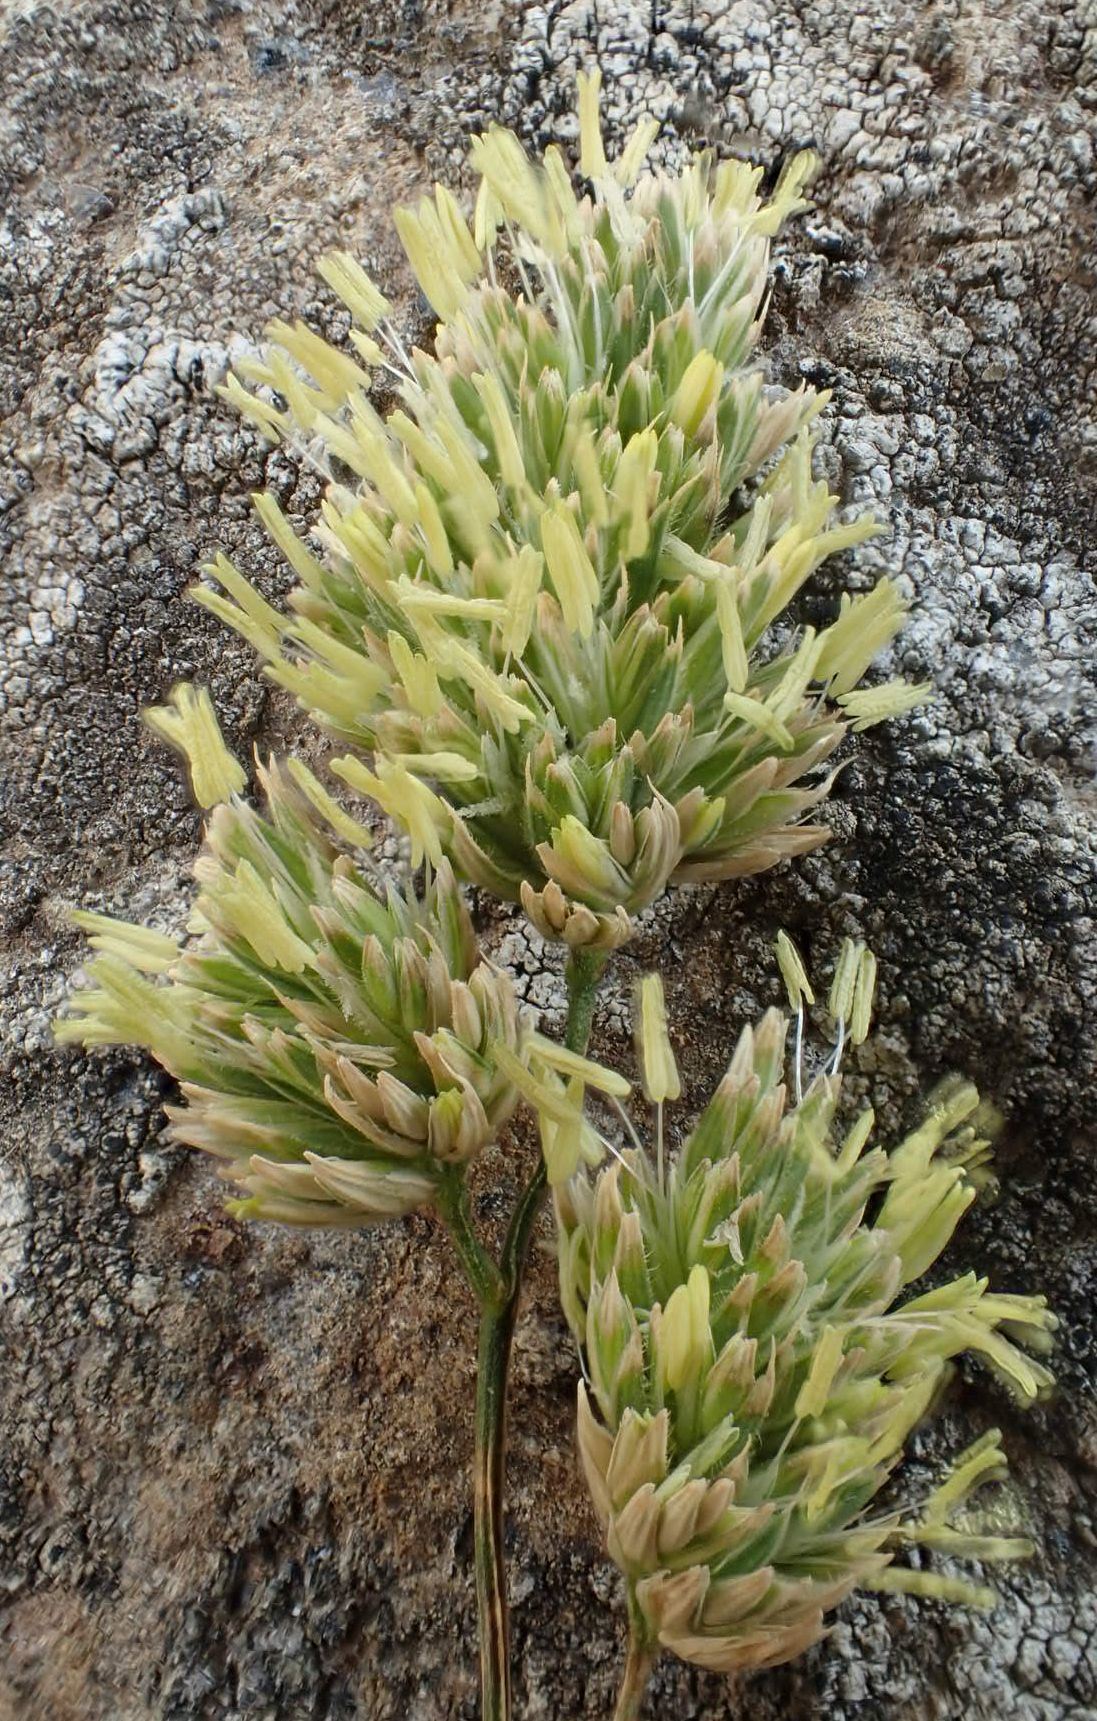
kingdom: Plantae
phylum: Tracheophyta
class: Liliopsida
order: Poales
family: Poaceae
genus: Dactylis
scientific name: Dactylis glomerata
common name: Orchardgrass
